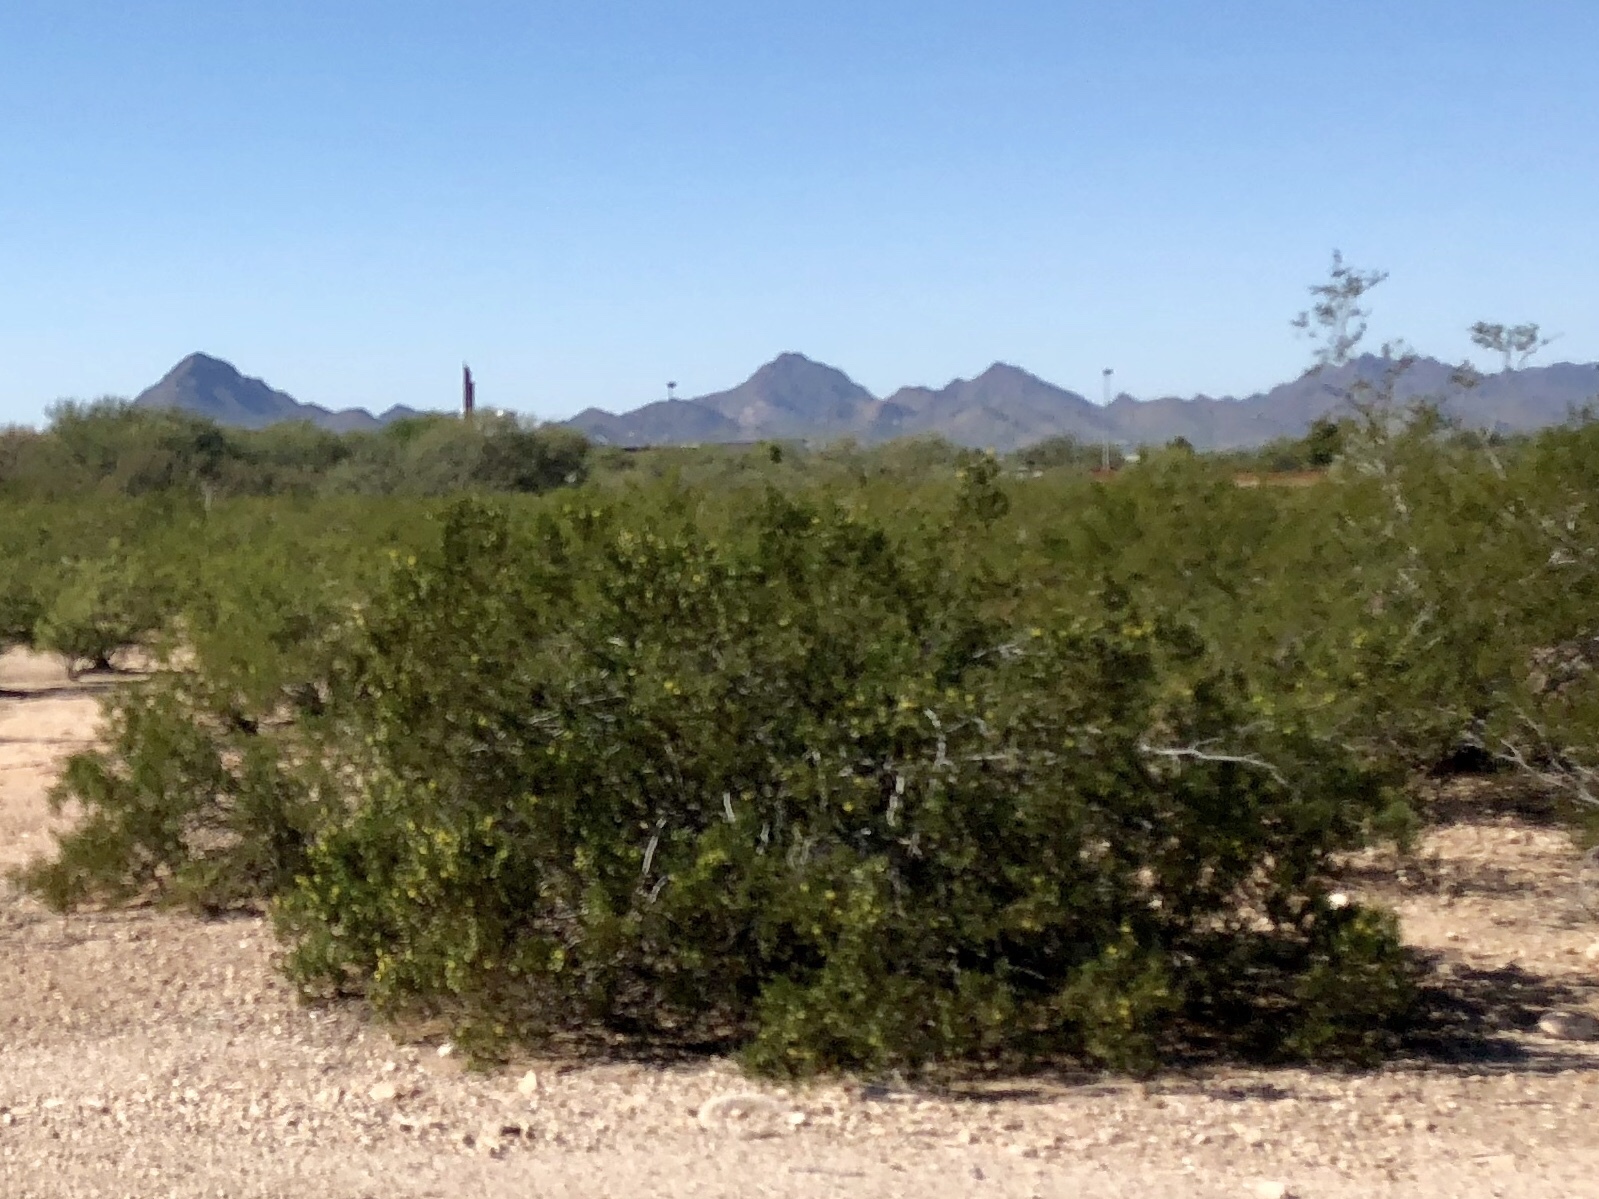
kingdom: Plantae
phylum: Tracheophyta
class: Magnoliopsida
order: Zygophyllales
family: Zygophyllaceae
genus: Larrea
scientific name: Larrea tridentata
